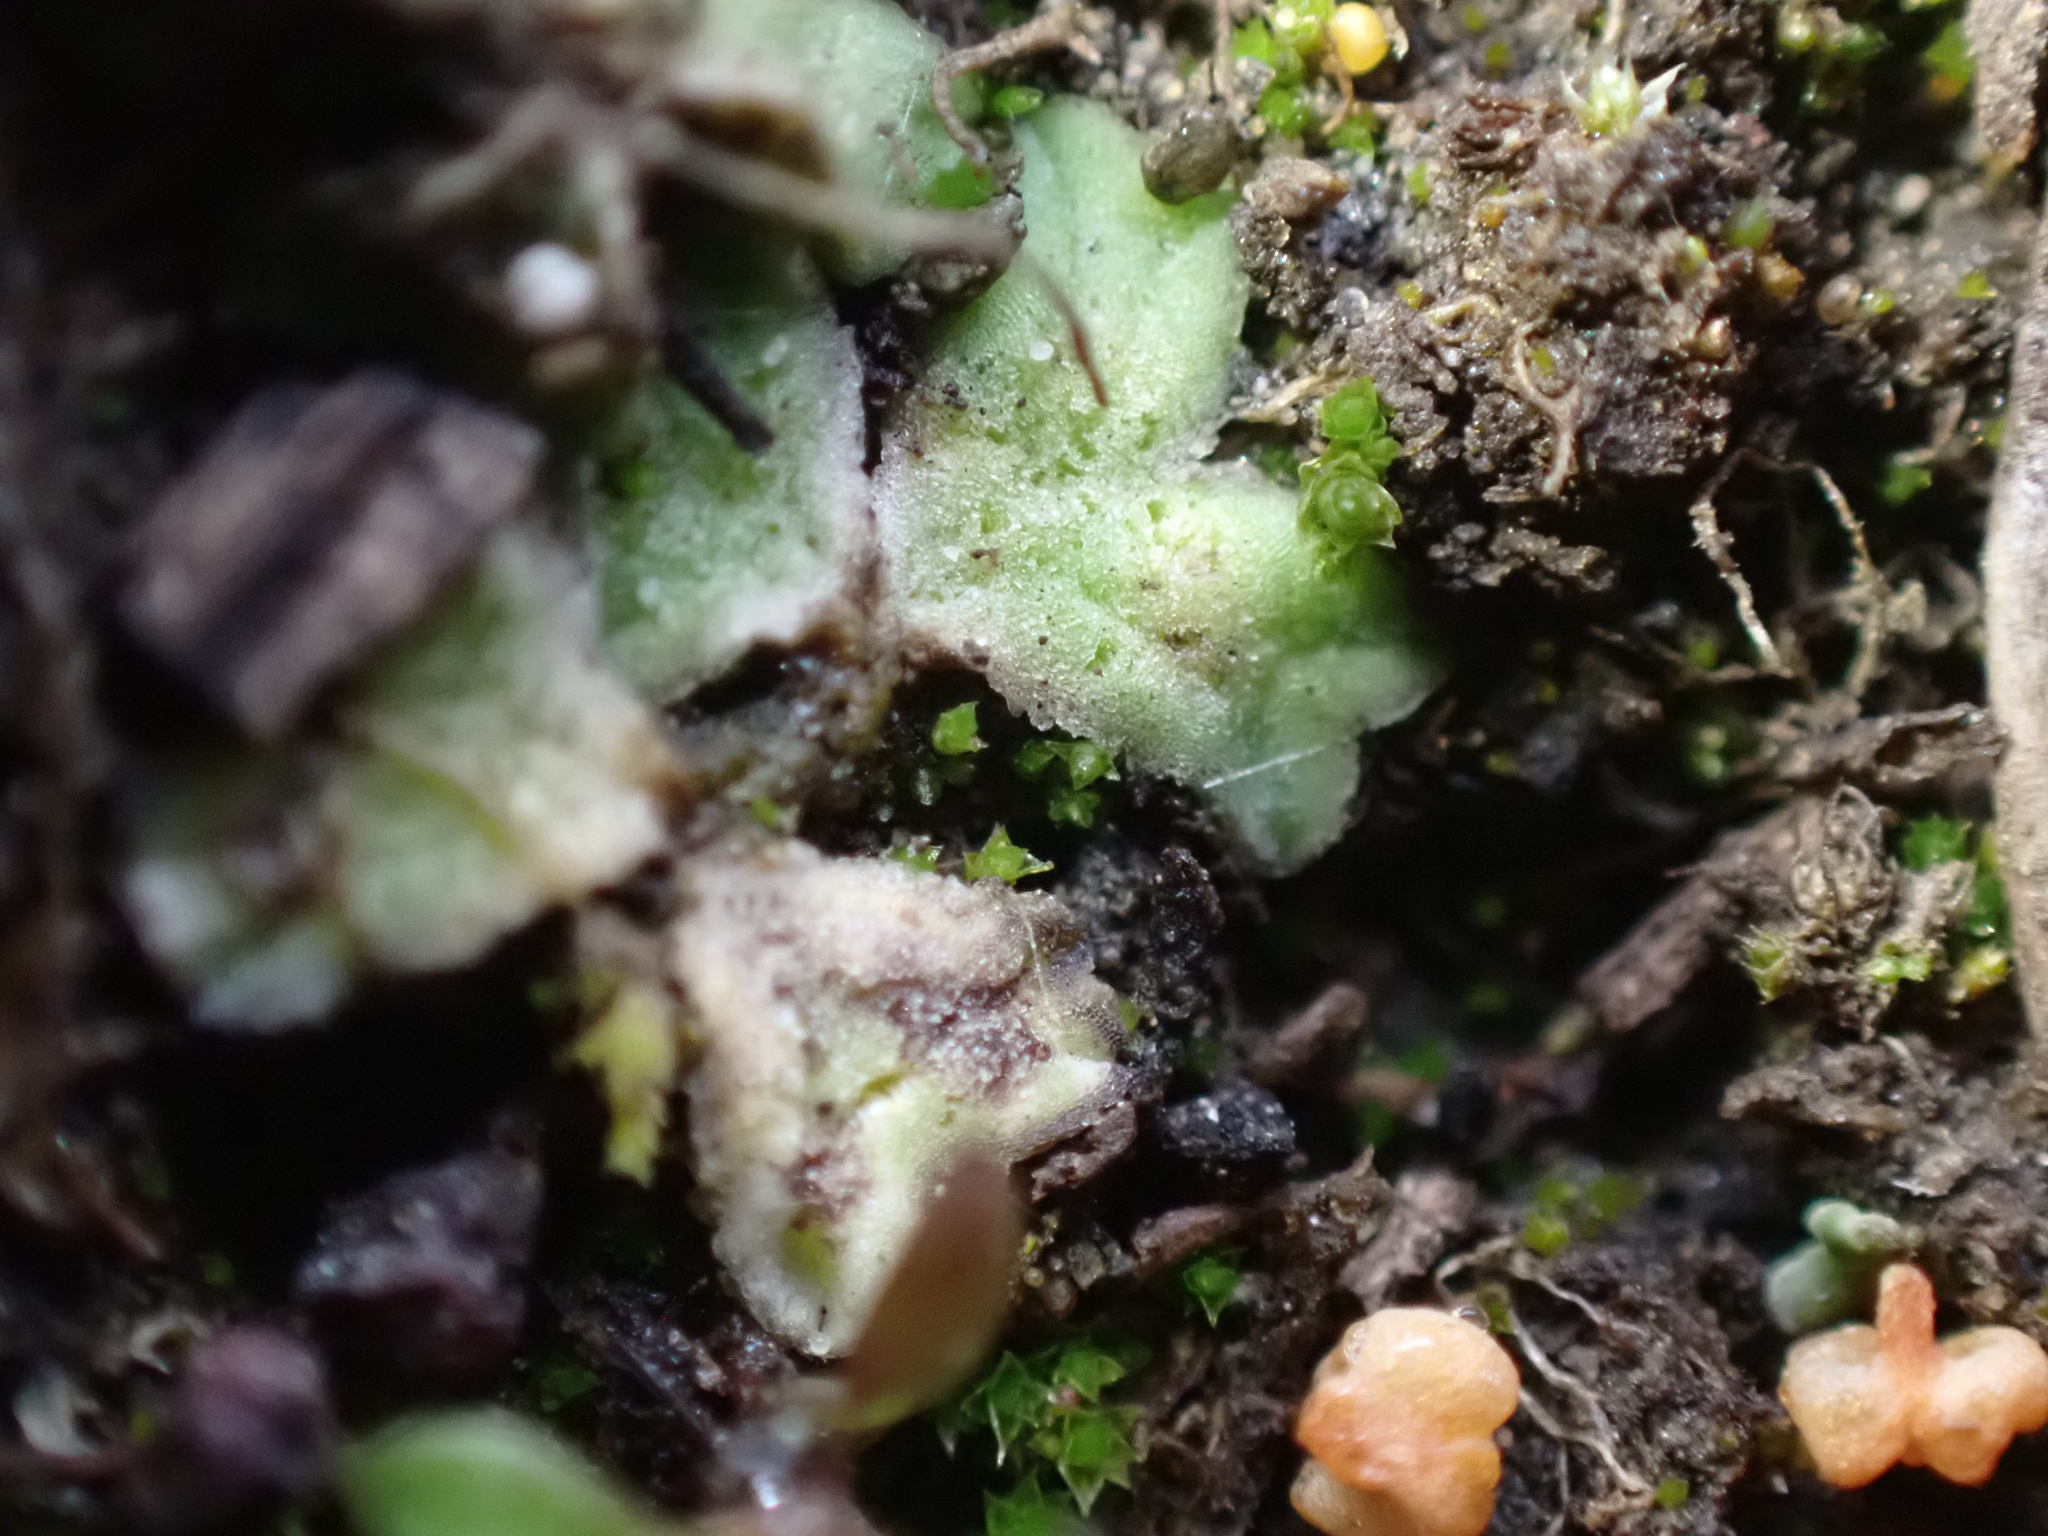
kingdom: Plantae
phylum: Marchantiophyta
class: Marchantiopsida
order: Marchantiales
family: Ricciaceae
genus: Riccia
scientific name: Riccia sorocarpa
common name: Common crystalwort
